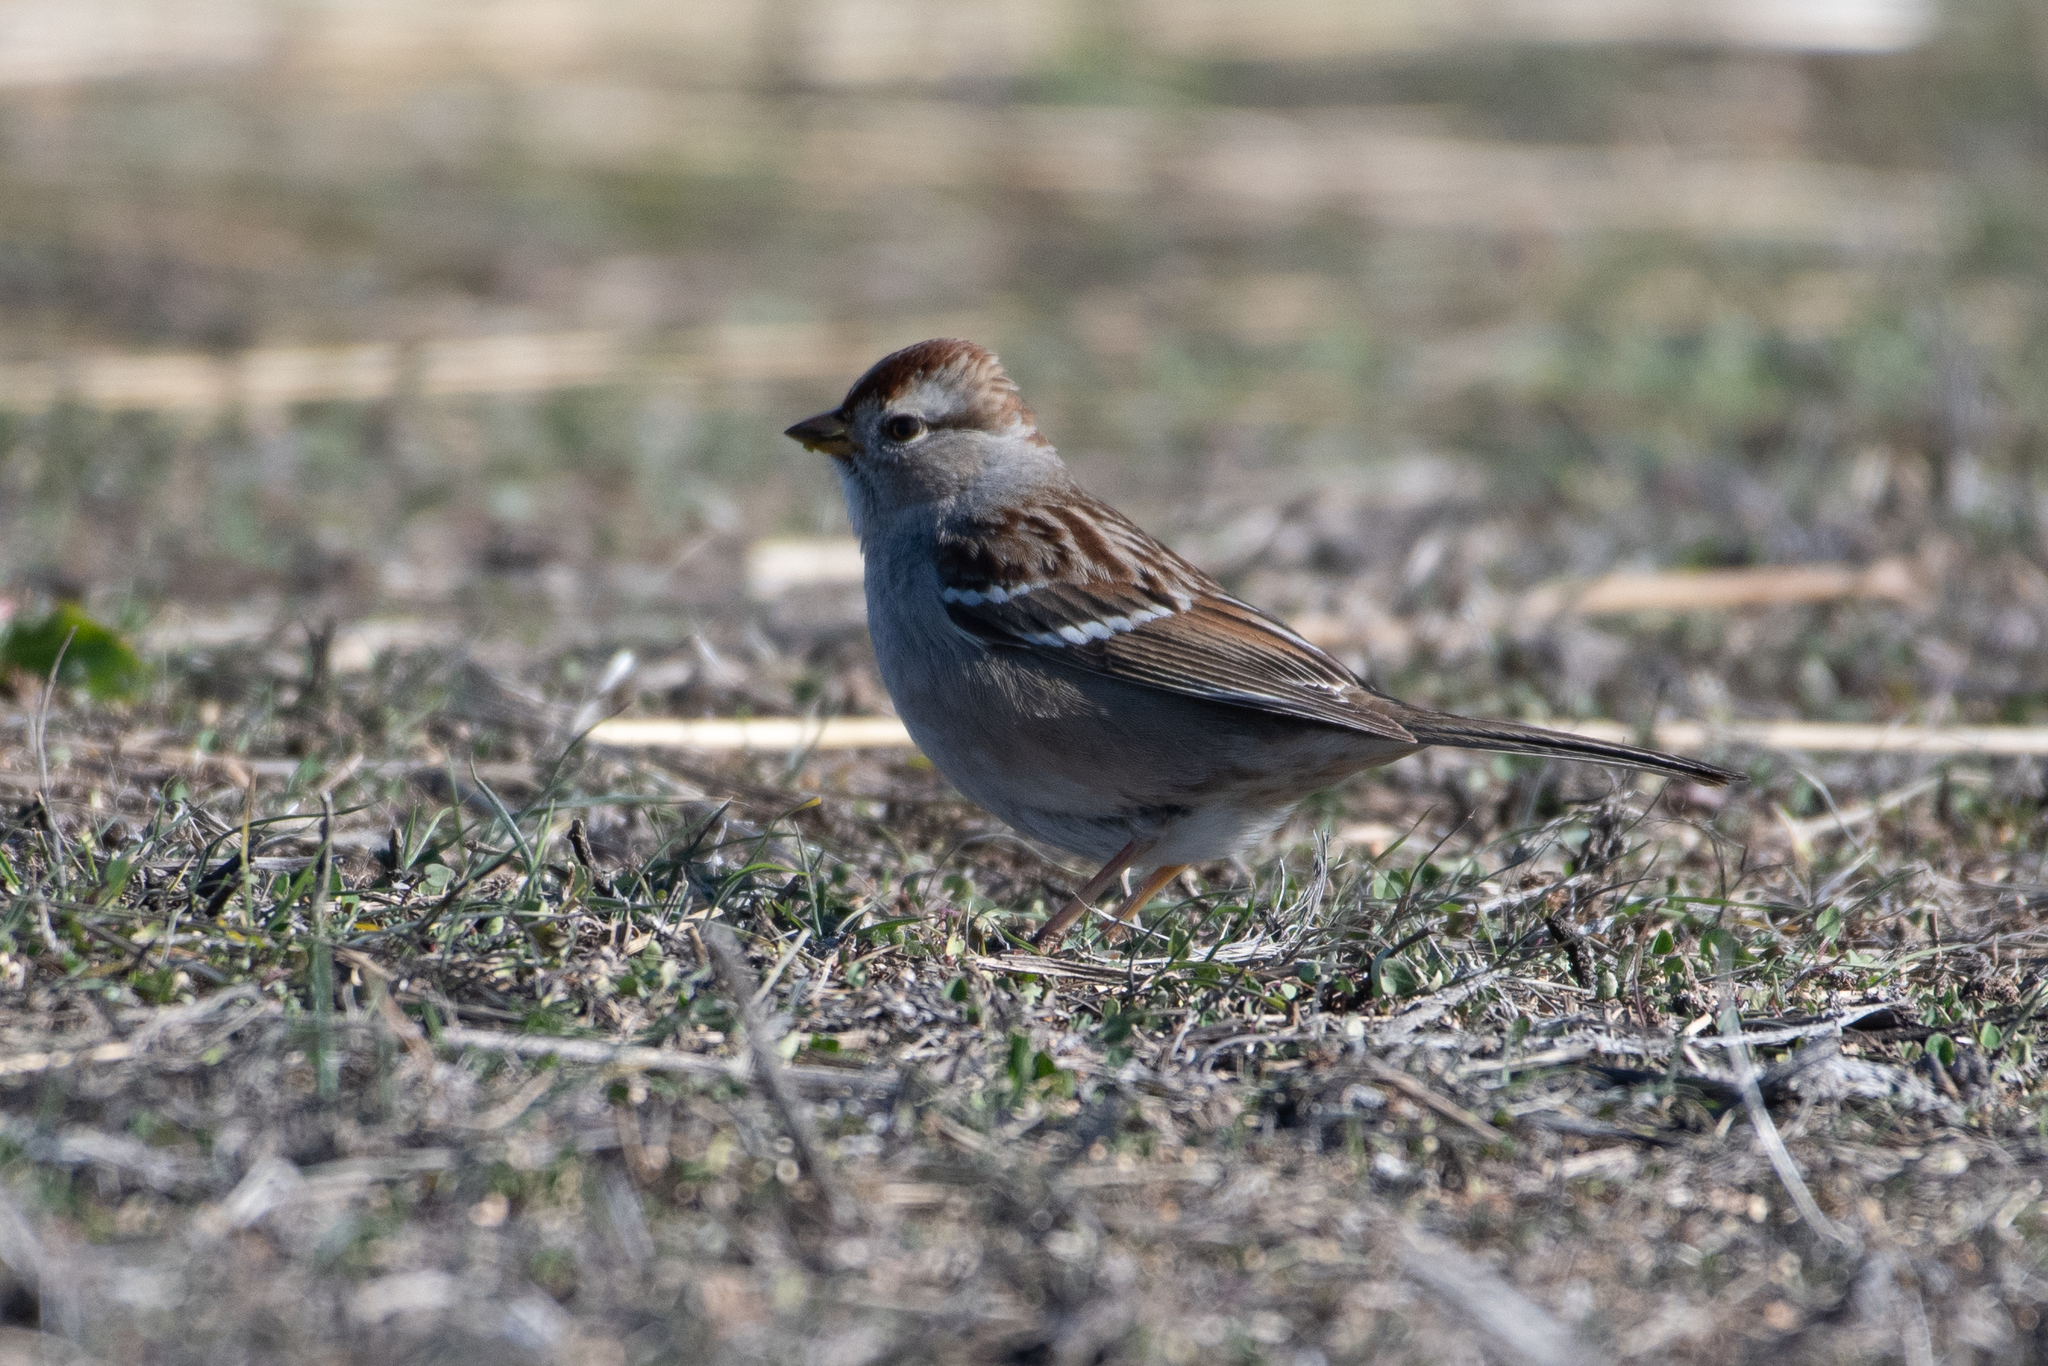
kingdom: Animalia
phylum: Chordata
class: Aves
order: Passeriformes
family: Passerellidae
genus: Zonotrichia
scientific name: Zonotrichia leucophrys
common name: White-crowned sparrow
